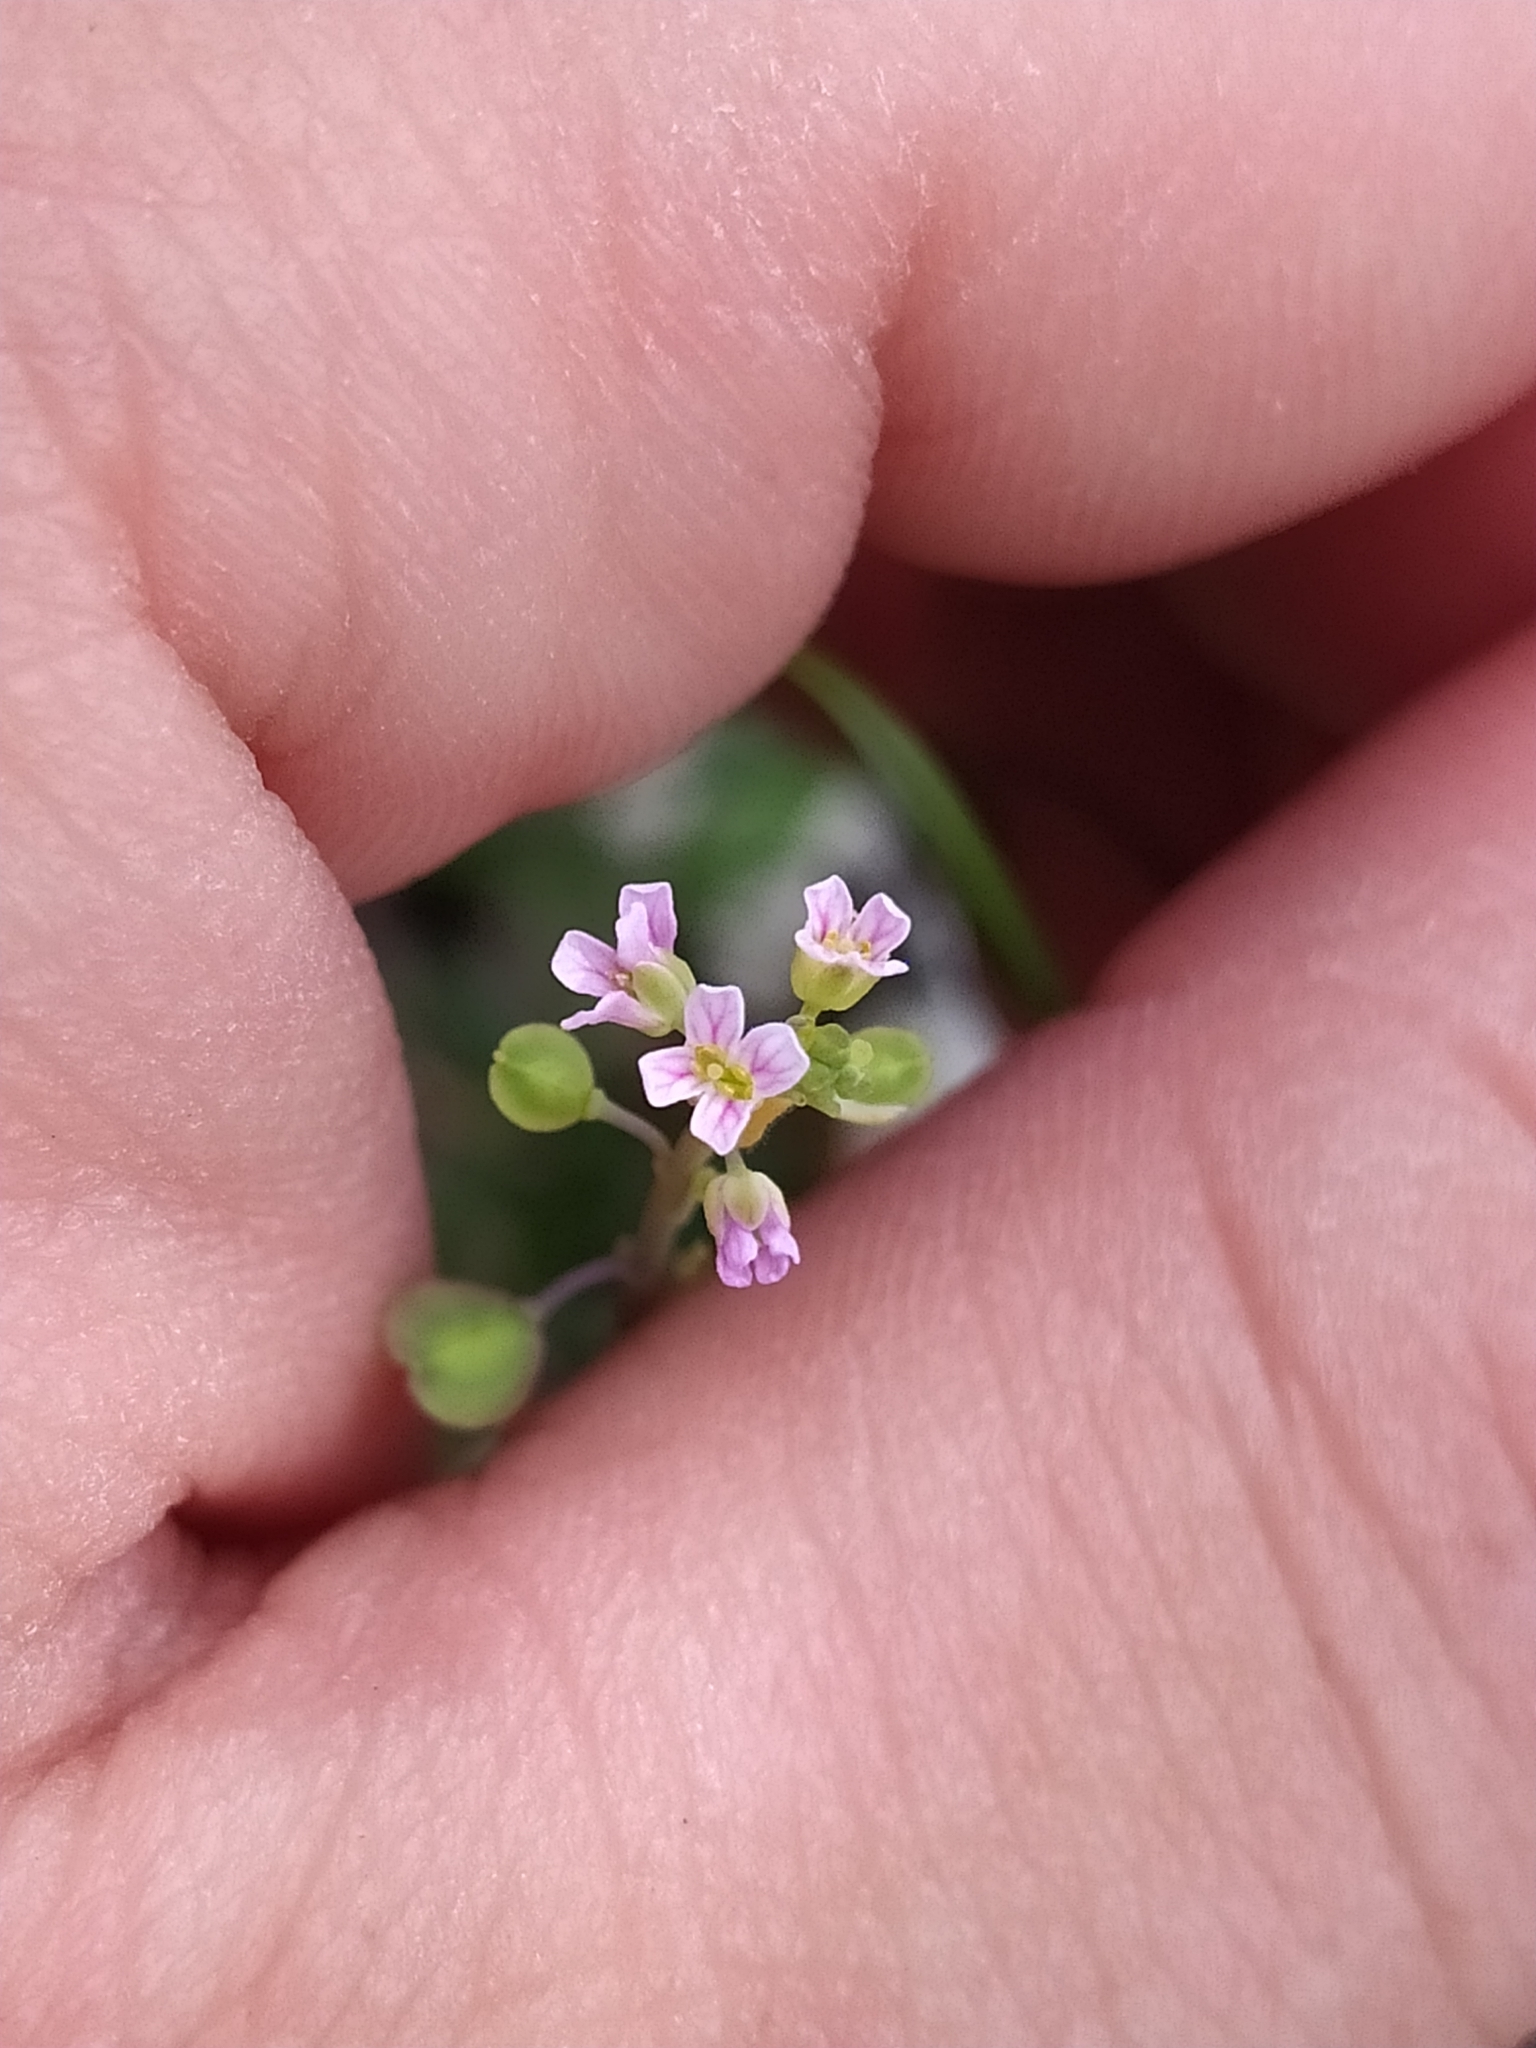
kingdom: Plantae
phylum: Tracheophyta
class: Magnoliopsida
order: Brassicales
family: Brassicaceae
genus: Aethionema
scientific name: Aethionema saxatile
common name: Burnt candytuft
